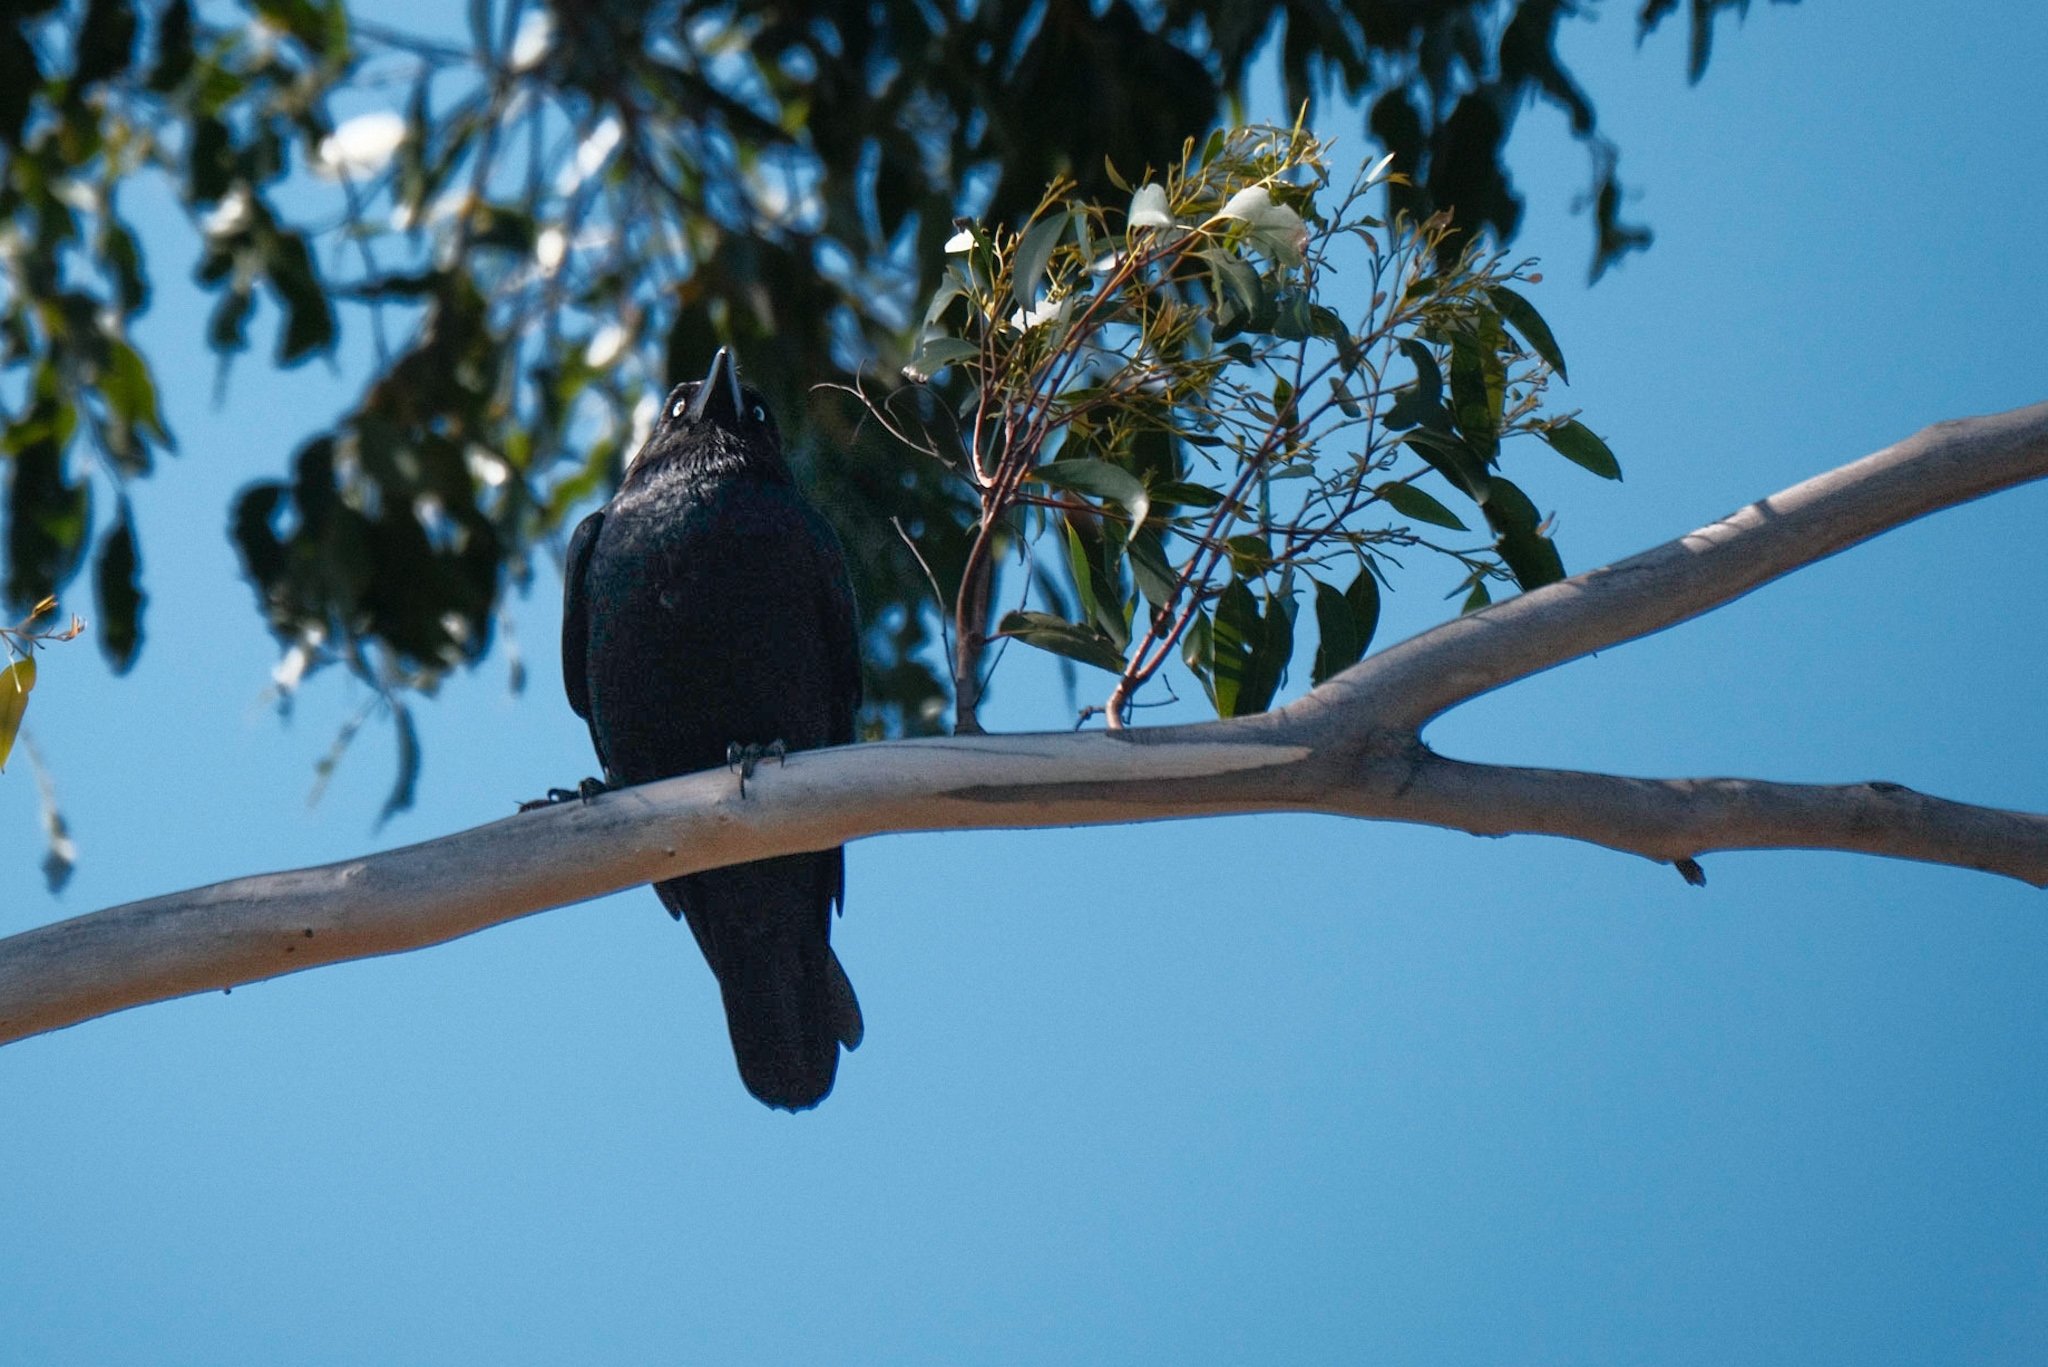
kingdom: Animalia
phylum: Chordata
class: Aves
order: Passeriformes
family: Corvidae
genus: Corvus
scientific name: Corvus tasmanicus
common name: Forest raven
